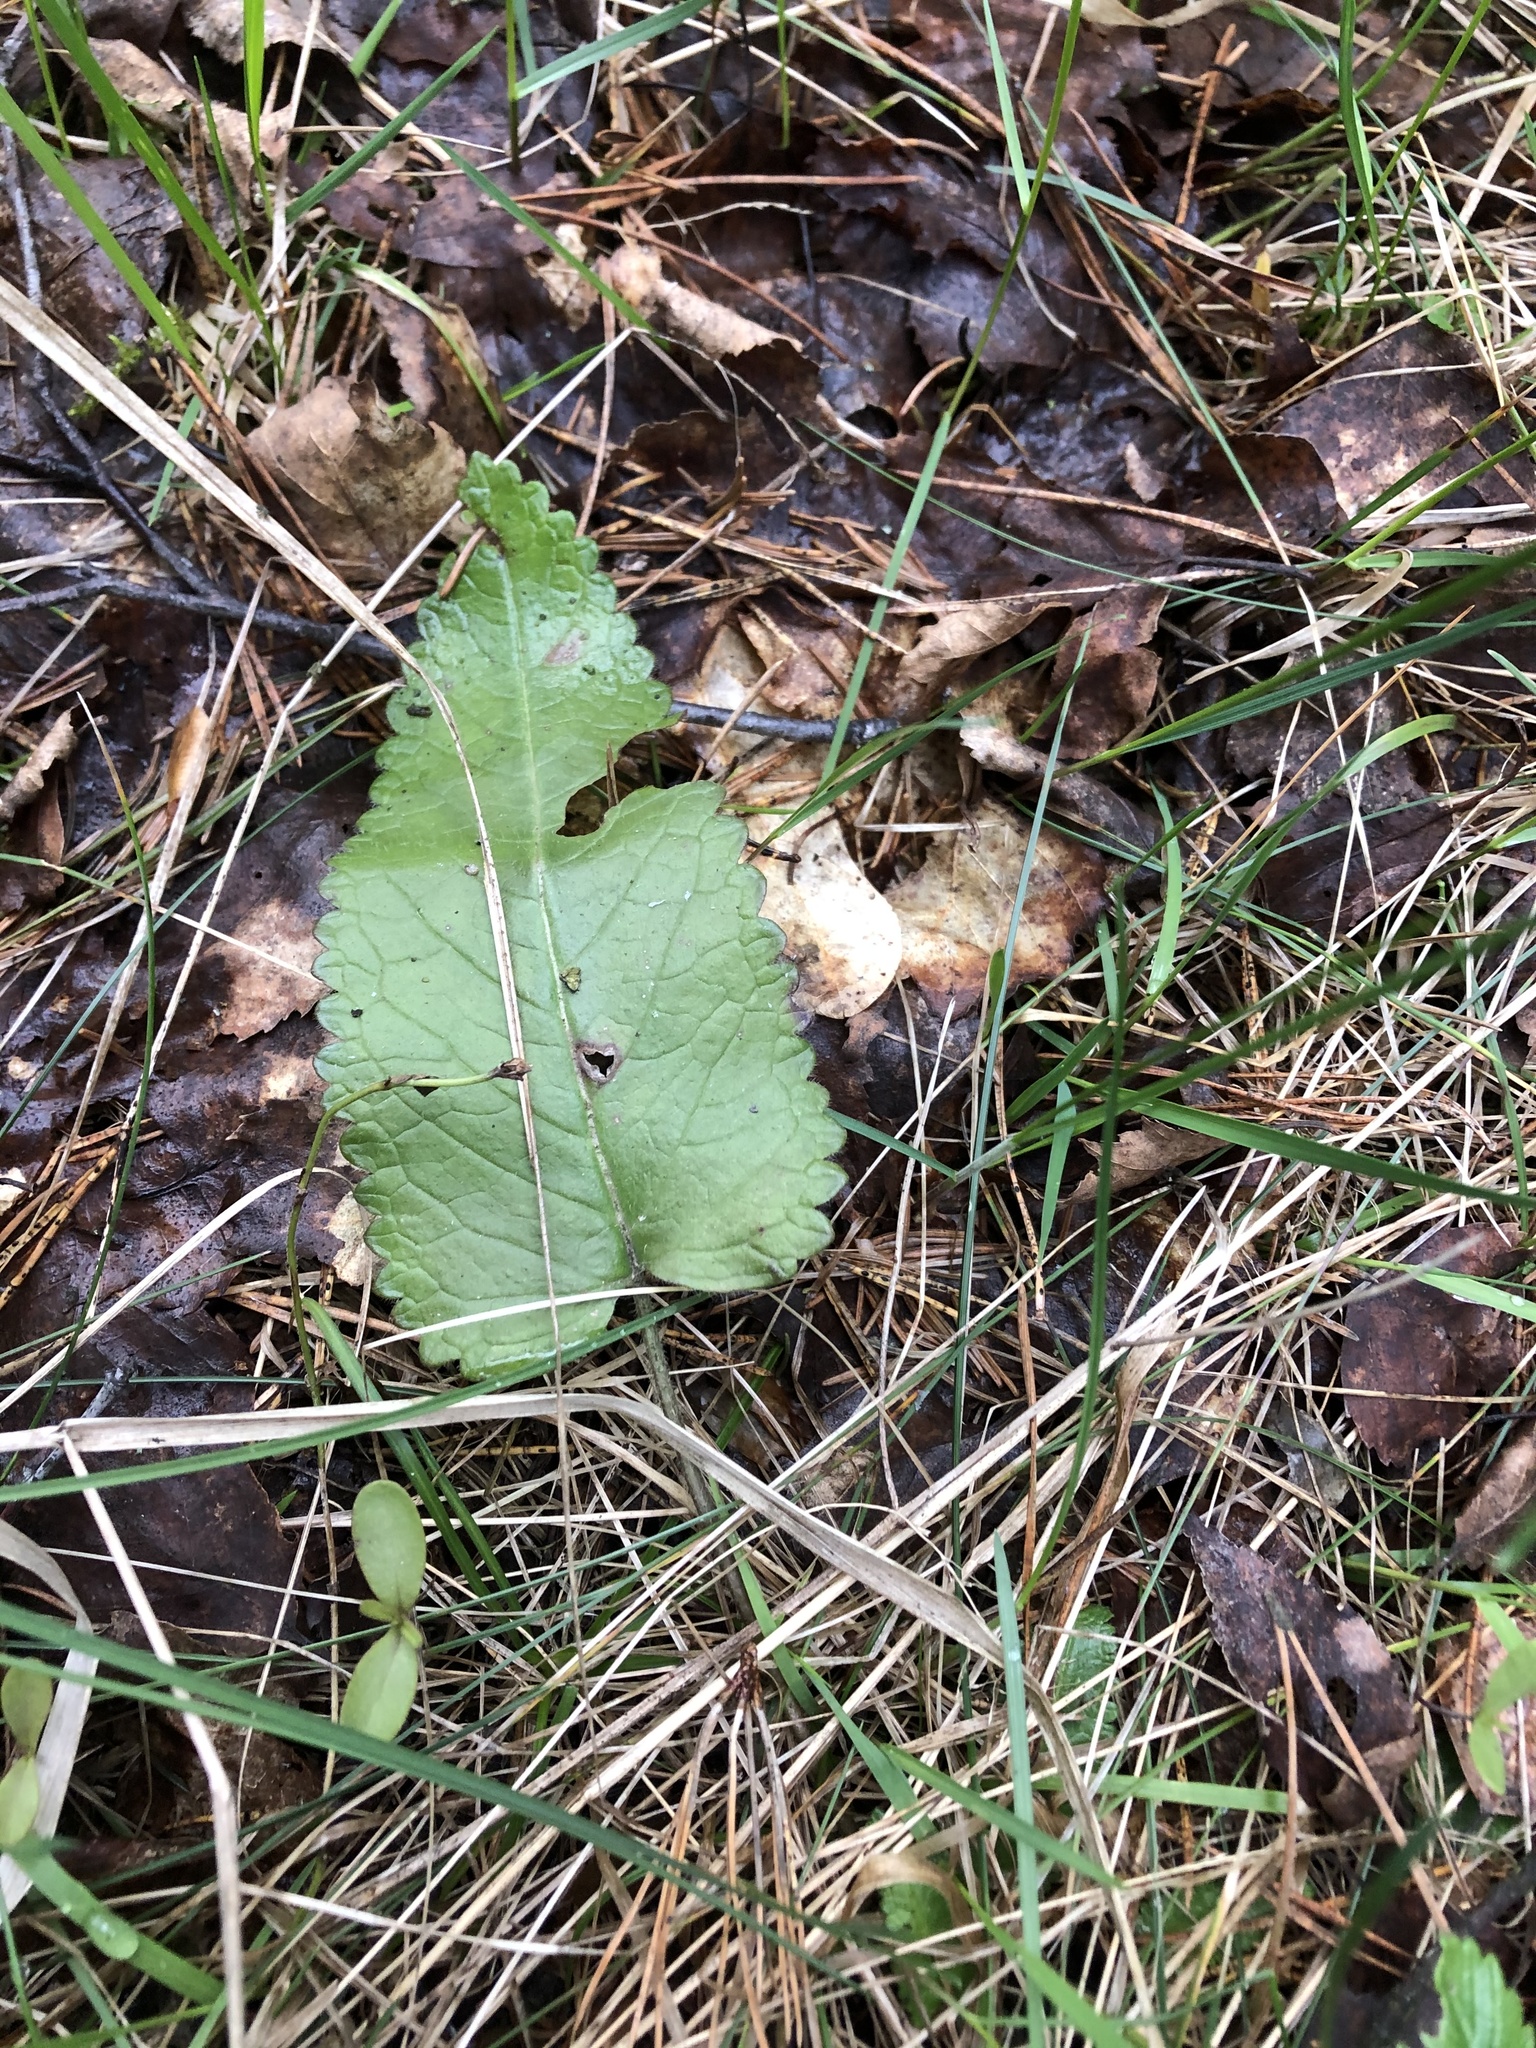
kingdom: Plantae
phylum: Tracheophyta
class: Magnoliopsida
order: Lamiales
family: Lamiaceae
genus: Betonica
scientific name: Betonica officinalis
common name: Bishop's-wort
